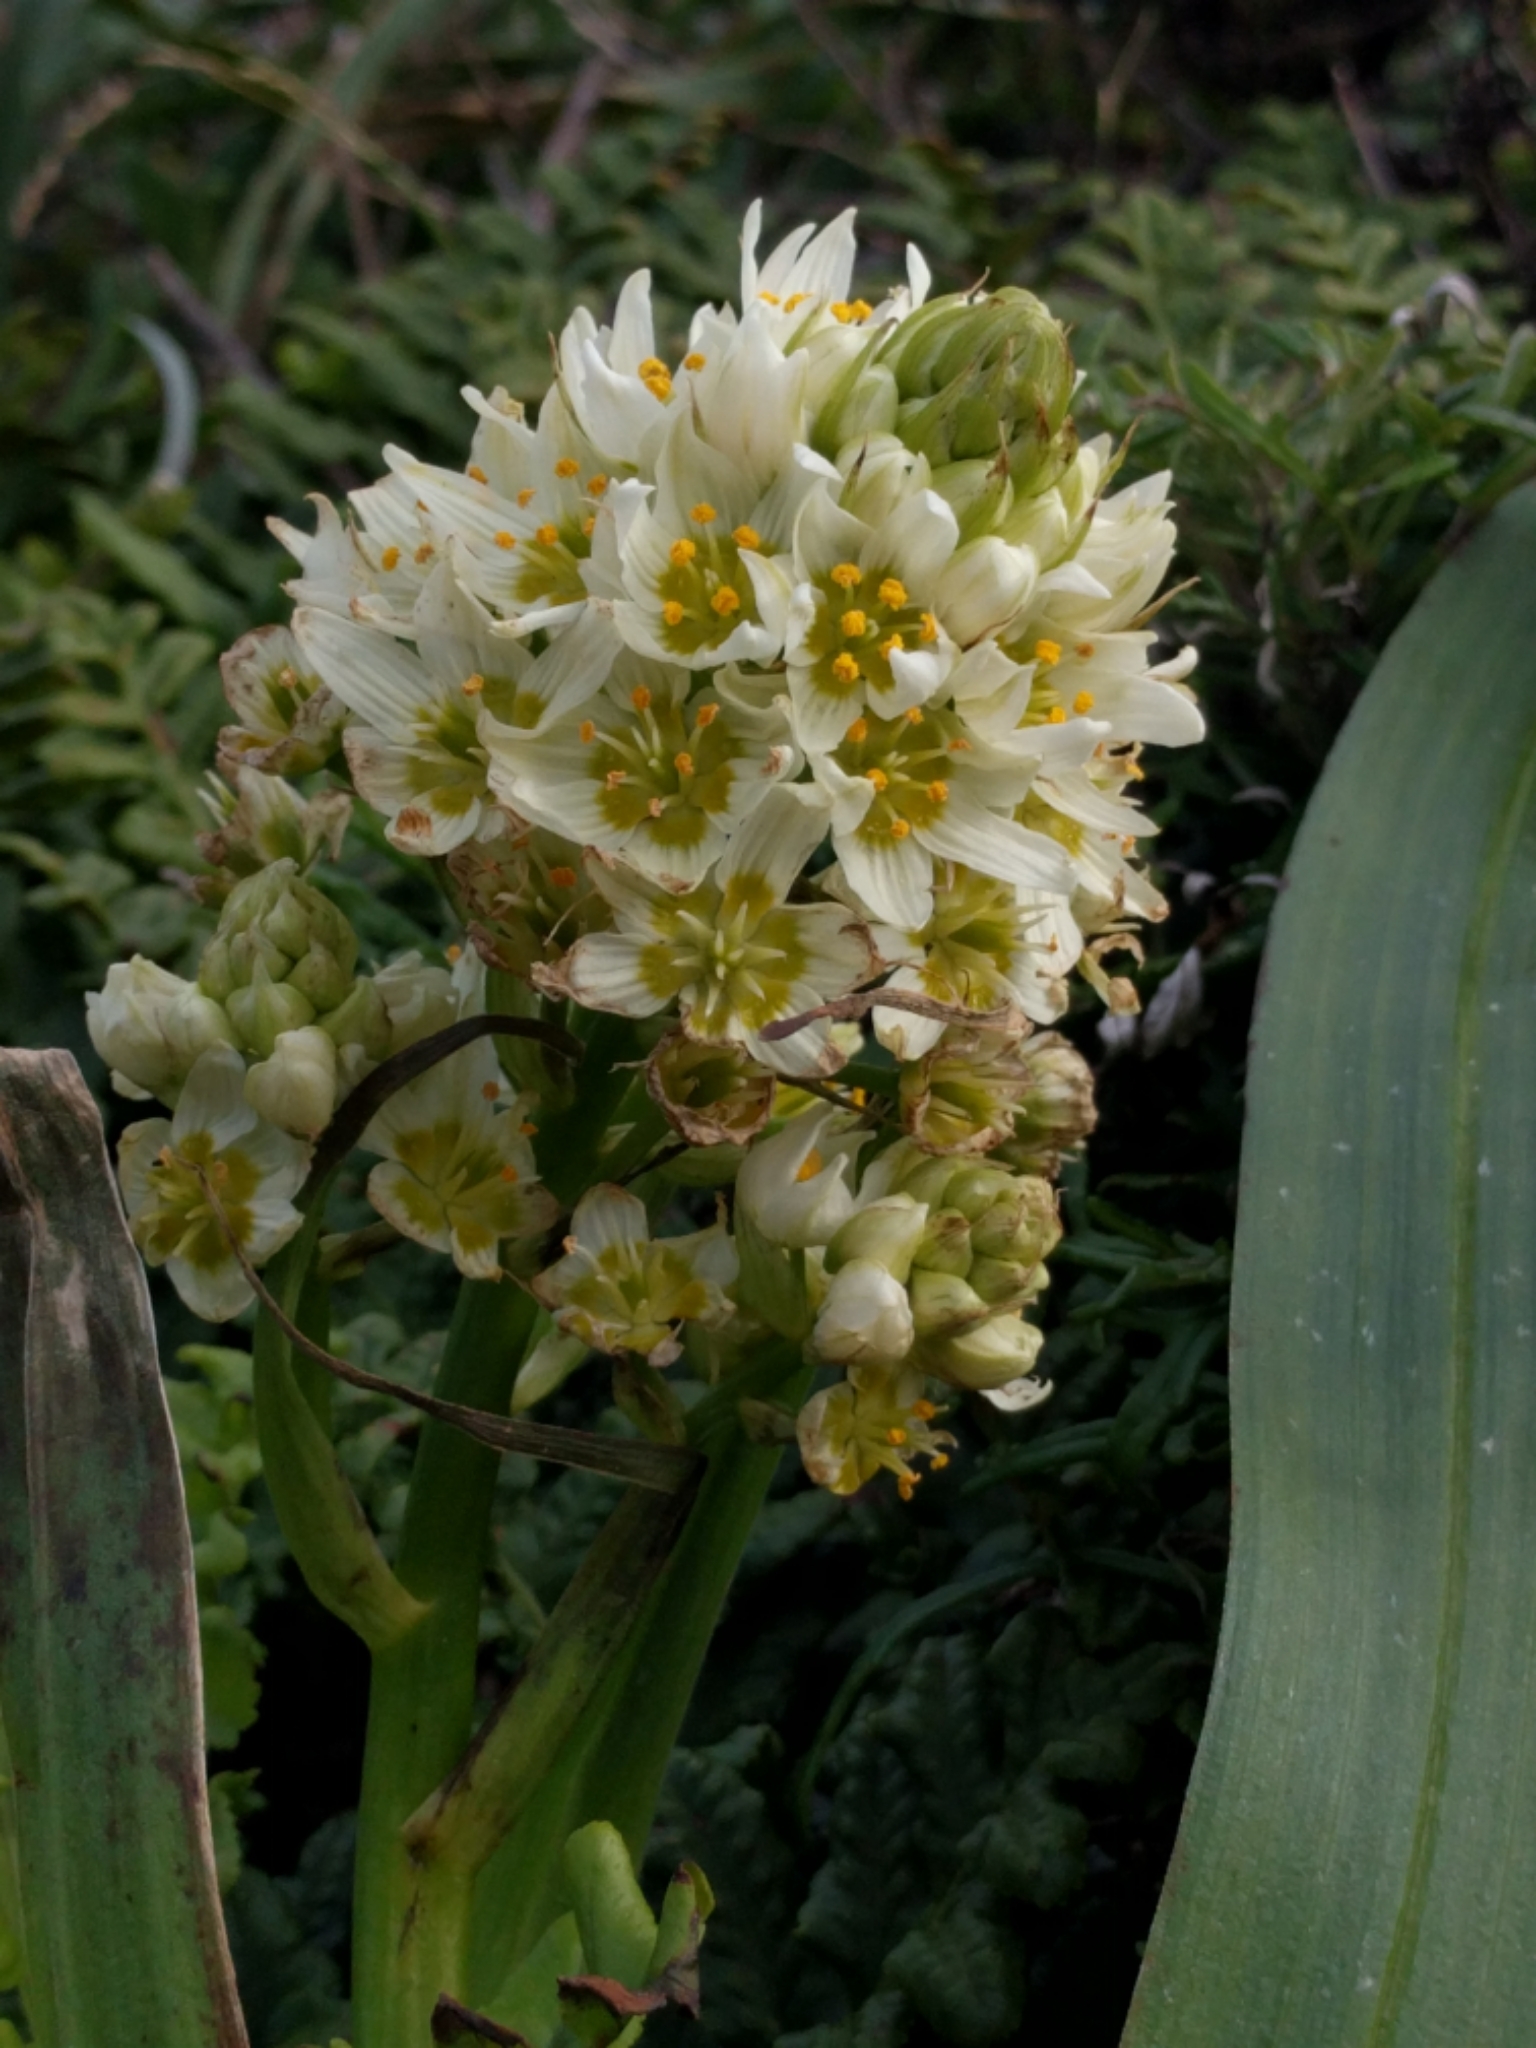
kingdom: Plantae
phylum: Tracheophyta
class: Liliopsida
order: Liliales
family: Melanthiaceae
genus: Toxicoscordion
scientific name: Toxicoscordion fremontii
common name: Fremont's death camas
